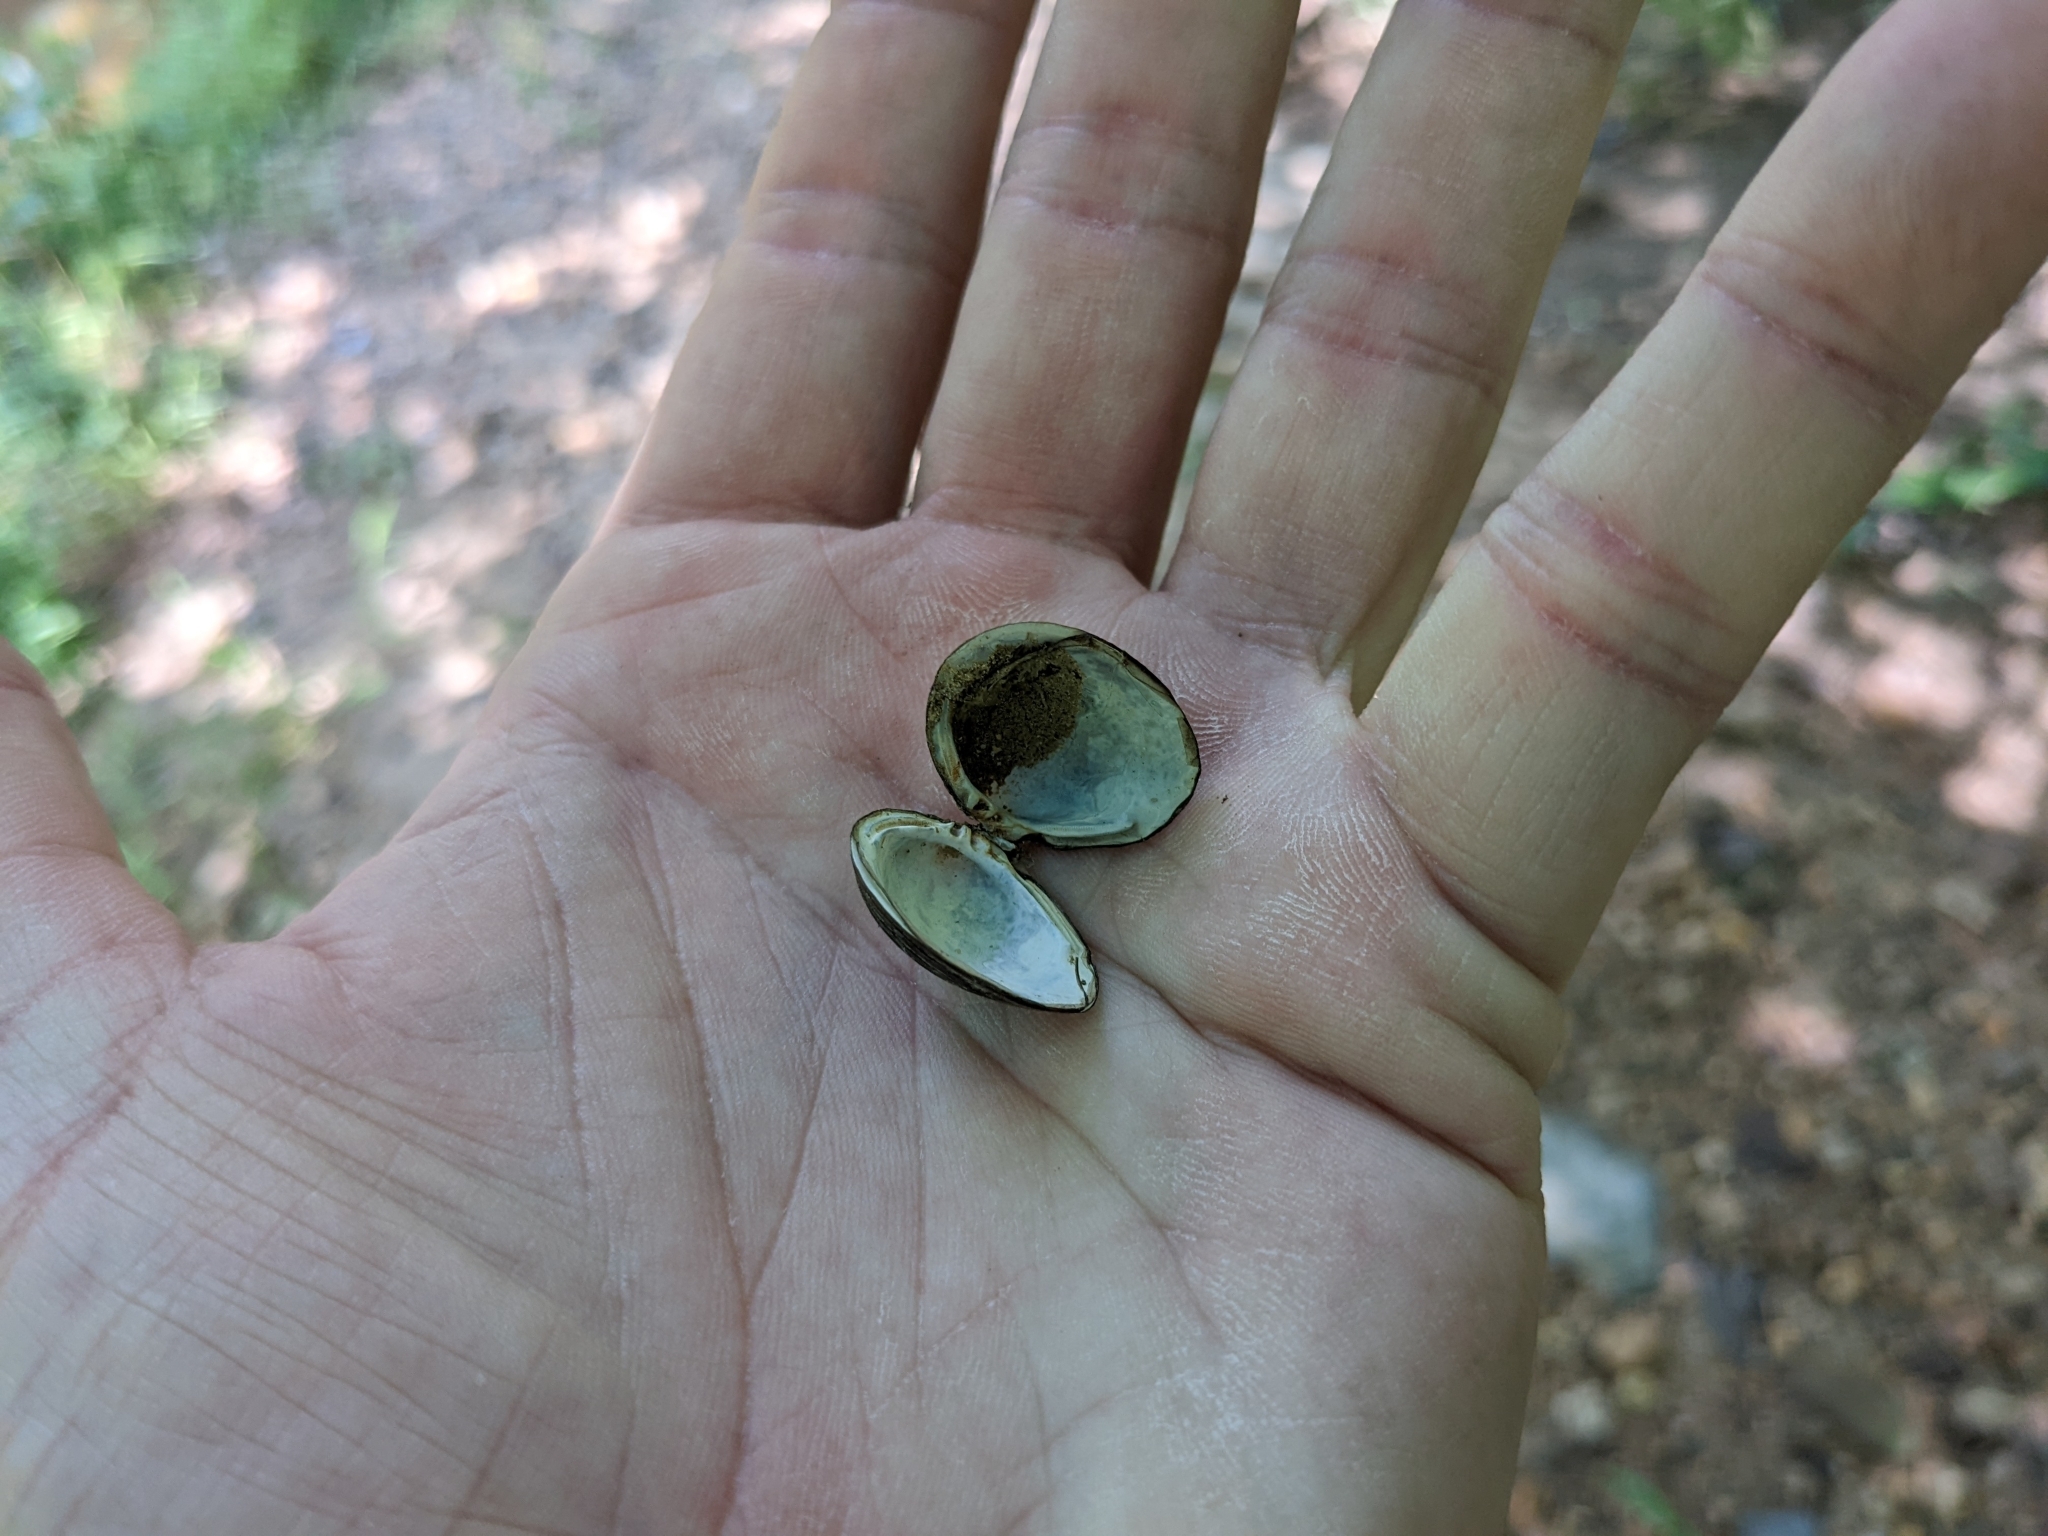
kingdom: Animalia
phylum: Mollusca
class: Bivalvia
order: Venerida
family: Cyrenidae
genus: Corbicula
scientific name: Corbicula fluminea
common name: Asian clam
